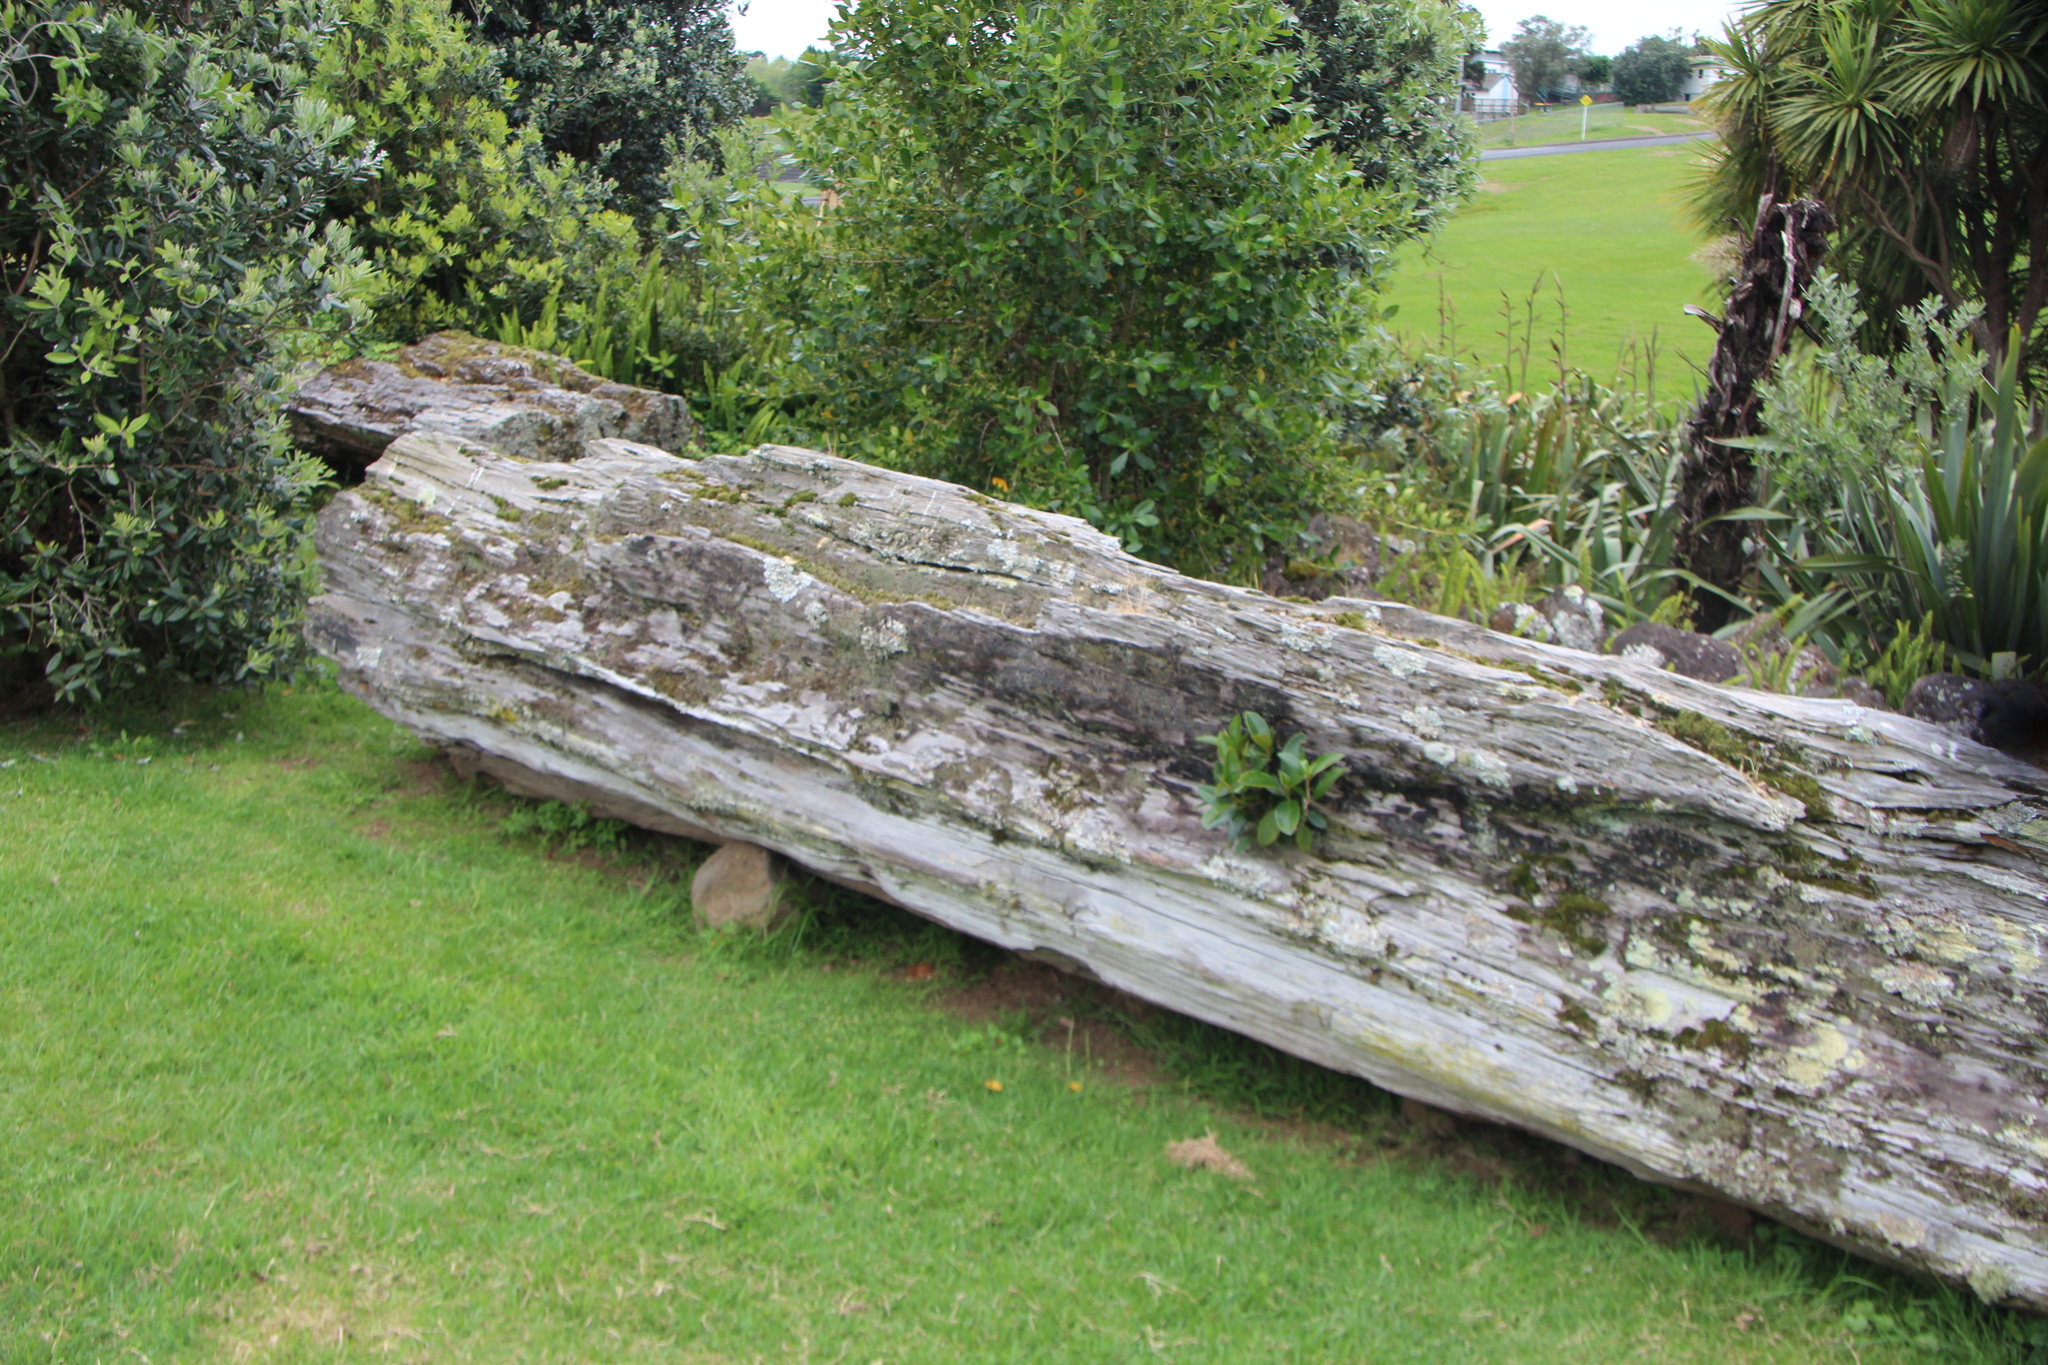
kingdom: Fungi
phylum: Ascomycota
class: Lecanoromycetes
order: Lecanorales
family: Cladoniaceae
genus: Cladonia
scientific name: Cladonia floerkeana
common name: Gritty british soldiers lichen
